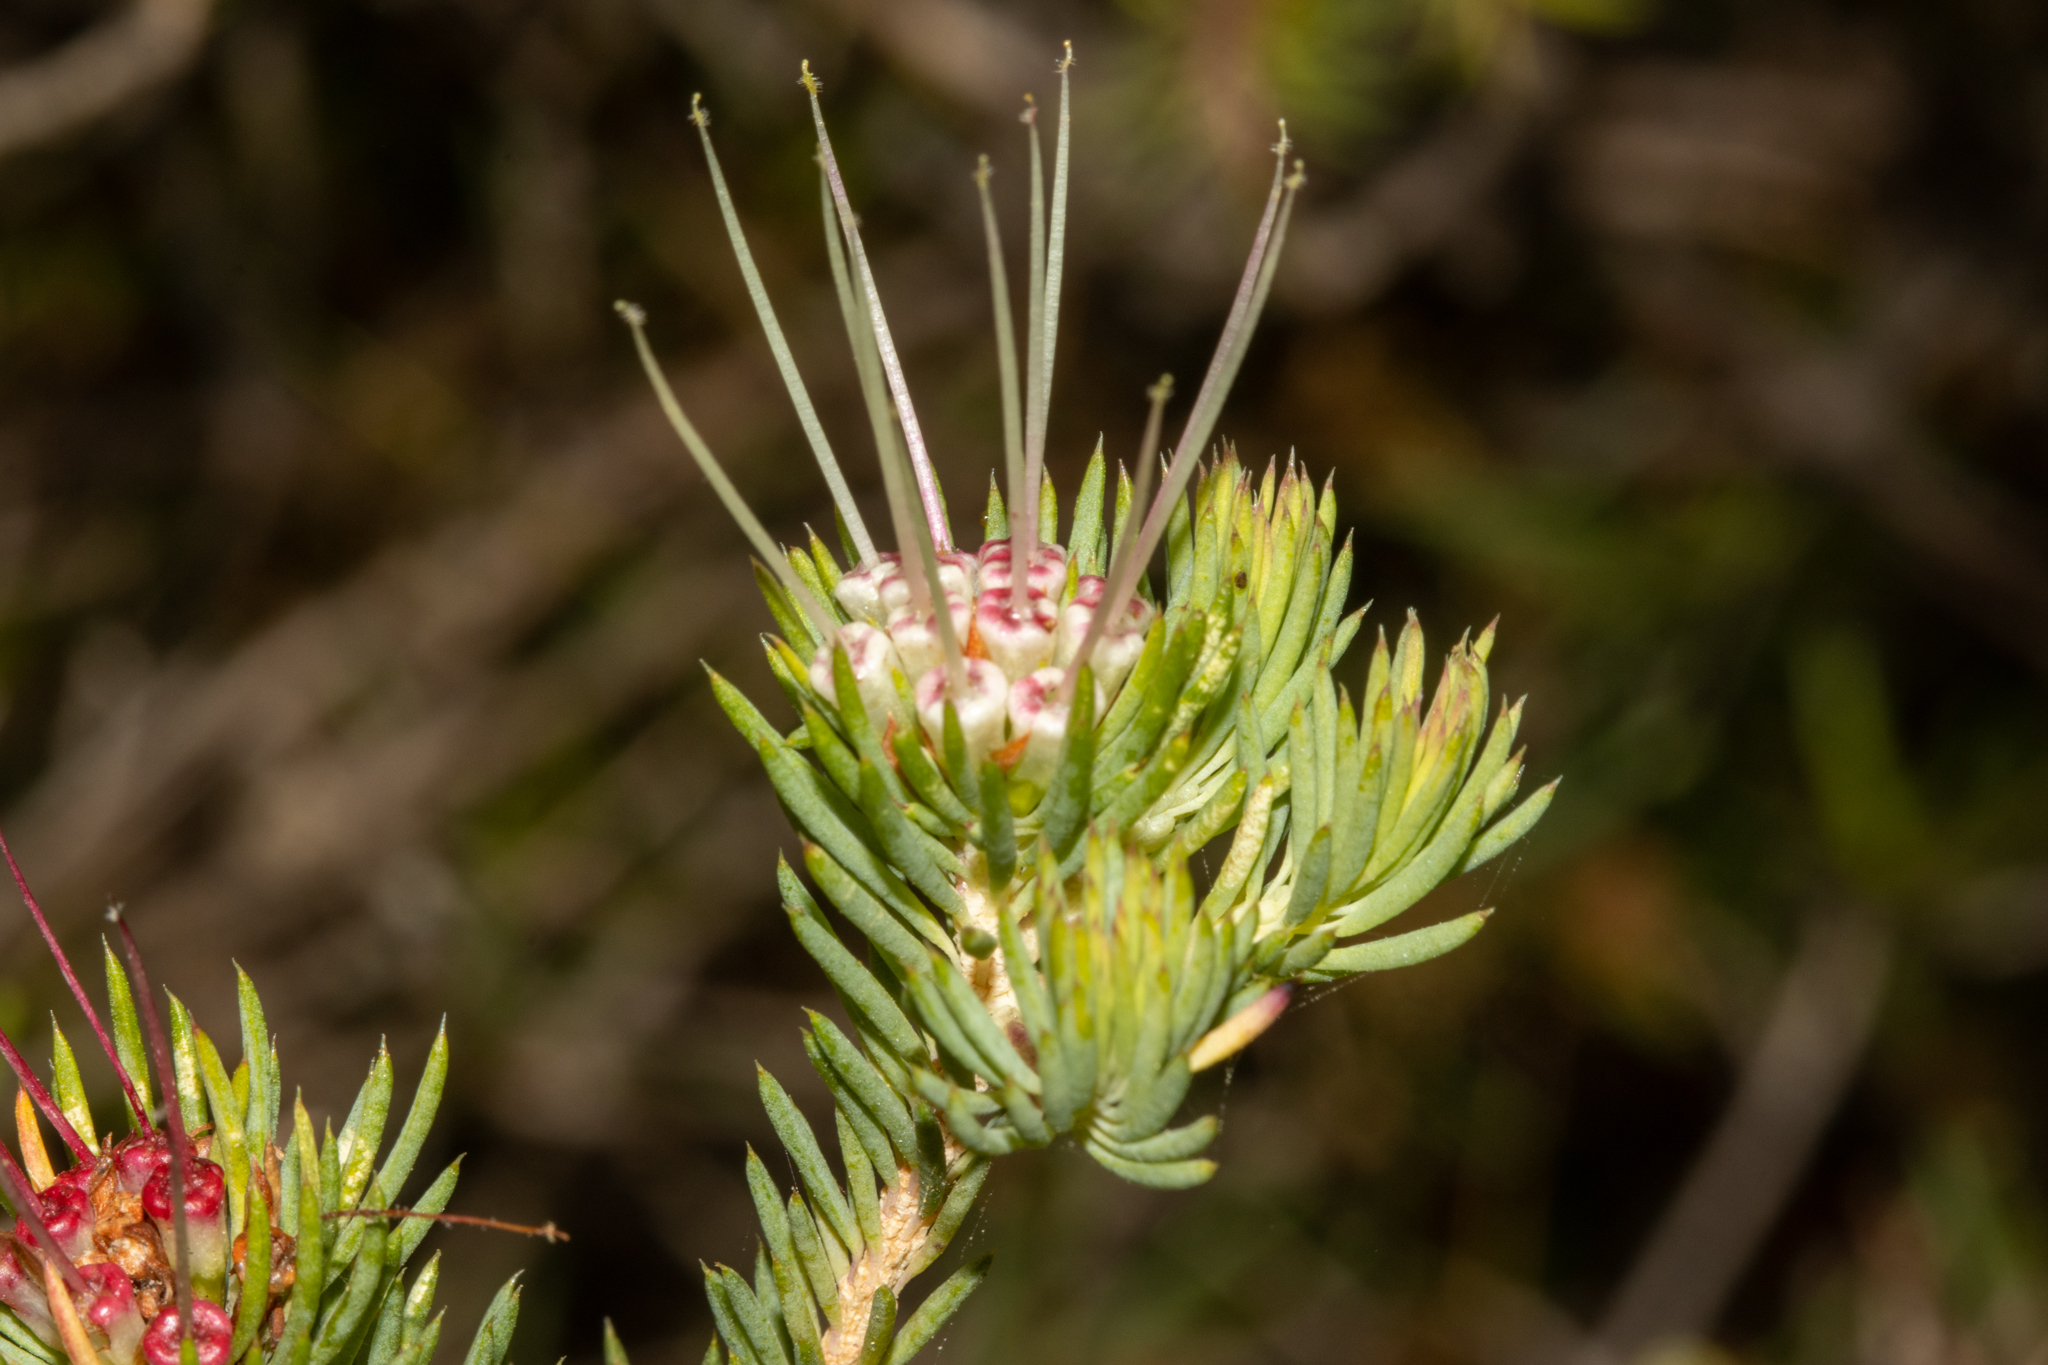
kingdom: Plantae
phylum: Tracheophyta
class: Magnoliopsida
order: Myrtales
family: Myrtaceae
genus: Darwinia
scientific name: Darwinia fascicularis
